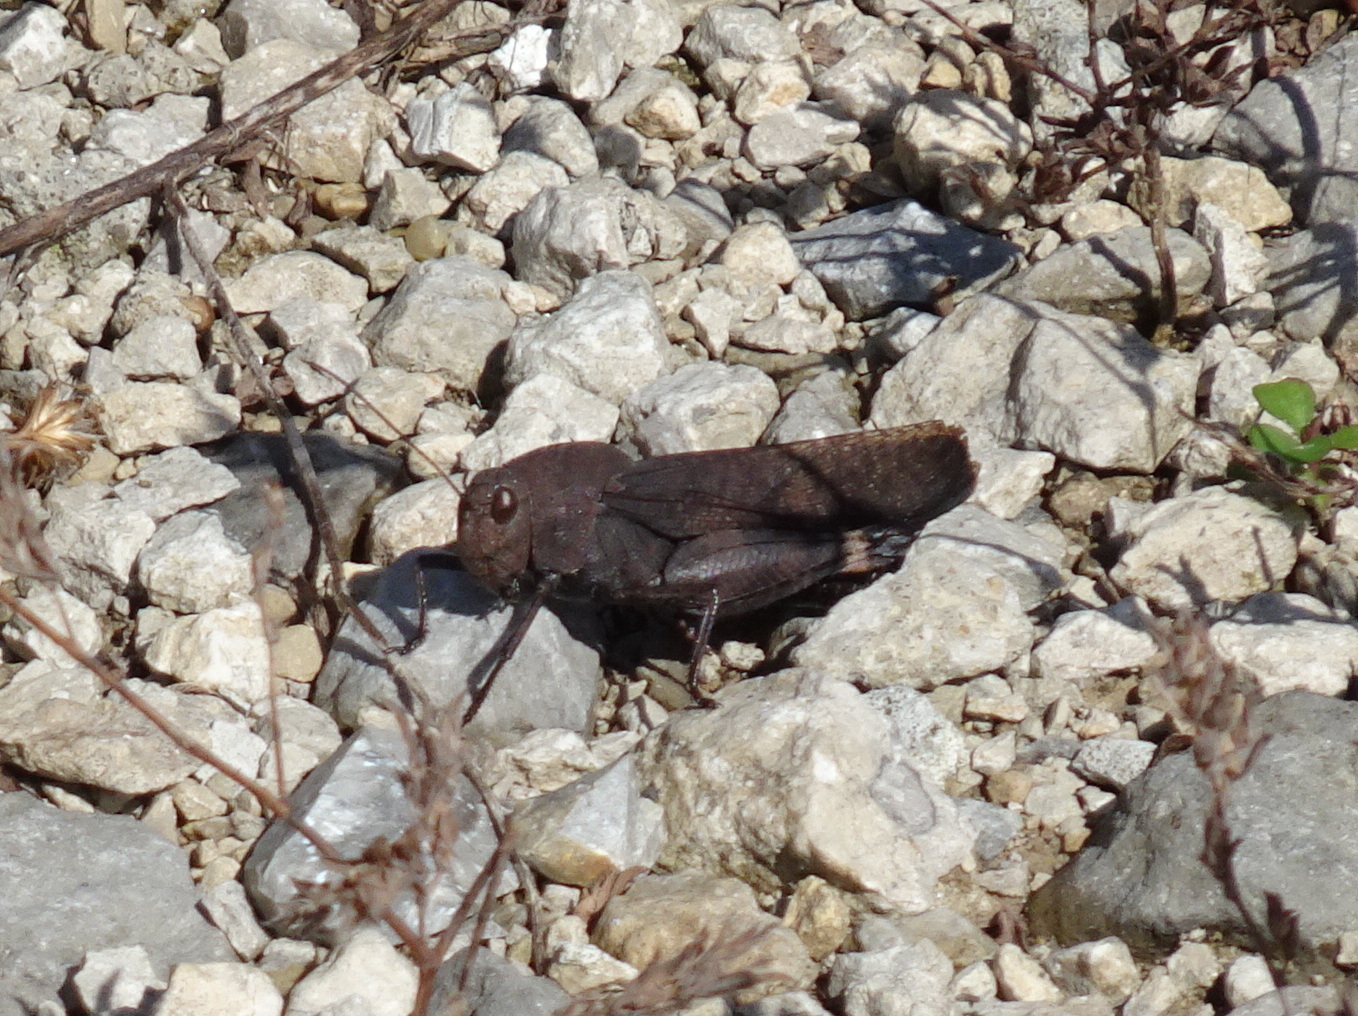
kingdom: Animalia
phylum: Arthropoda
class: Insecta
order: Orthoptera
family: Acrididae
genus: Arphia
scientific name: Arphia xanthoptera
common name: Autumn yellow-winged grasshopper
